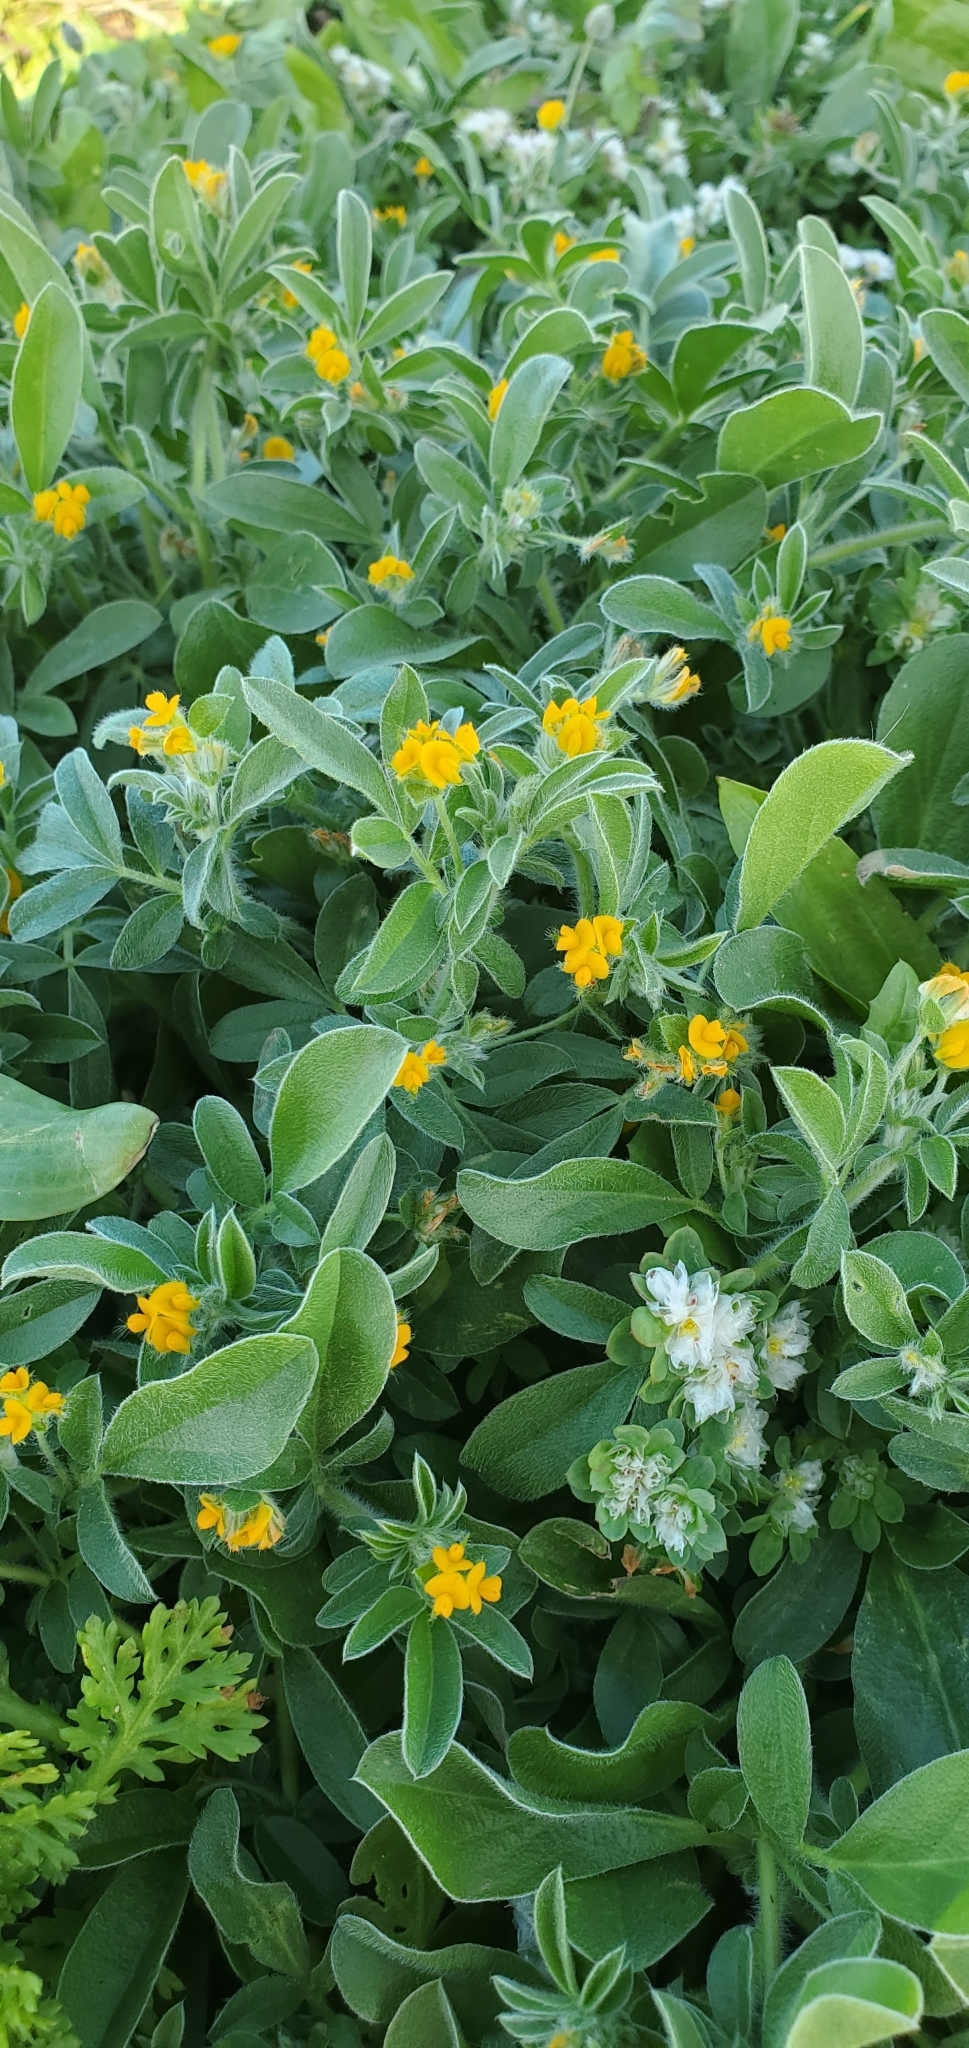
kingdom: Plantae
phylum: Tracheophyta
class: Magnoliopsida
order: Fabales
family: Fabaceae
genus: Anthyllis
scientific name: Anthyllis circinnata
